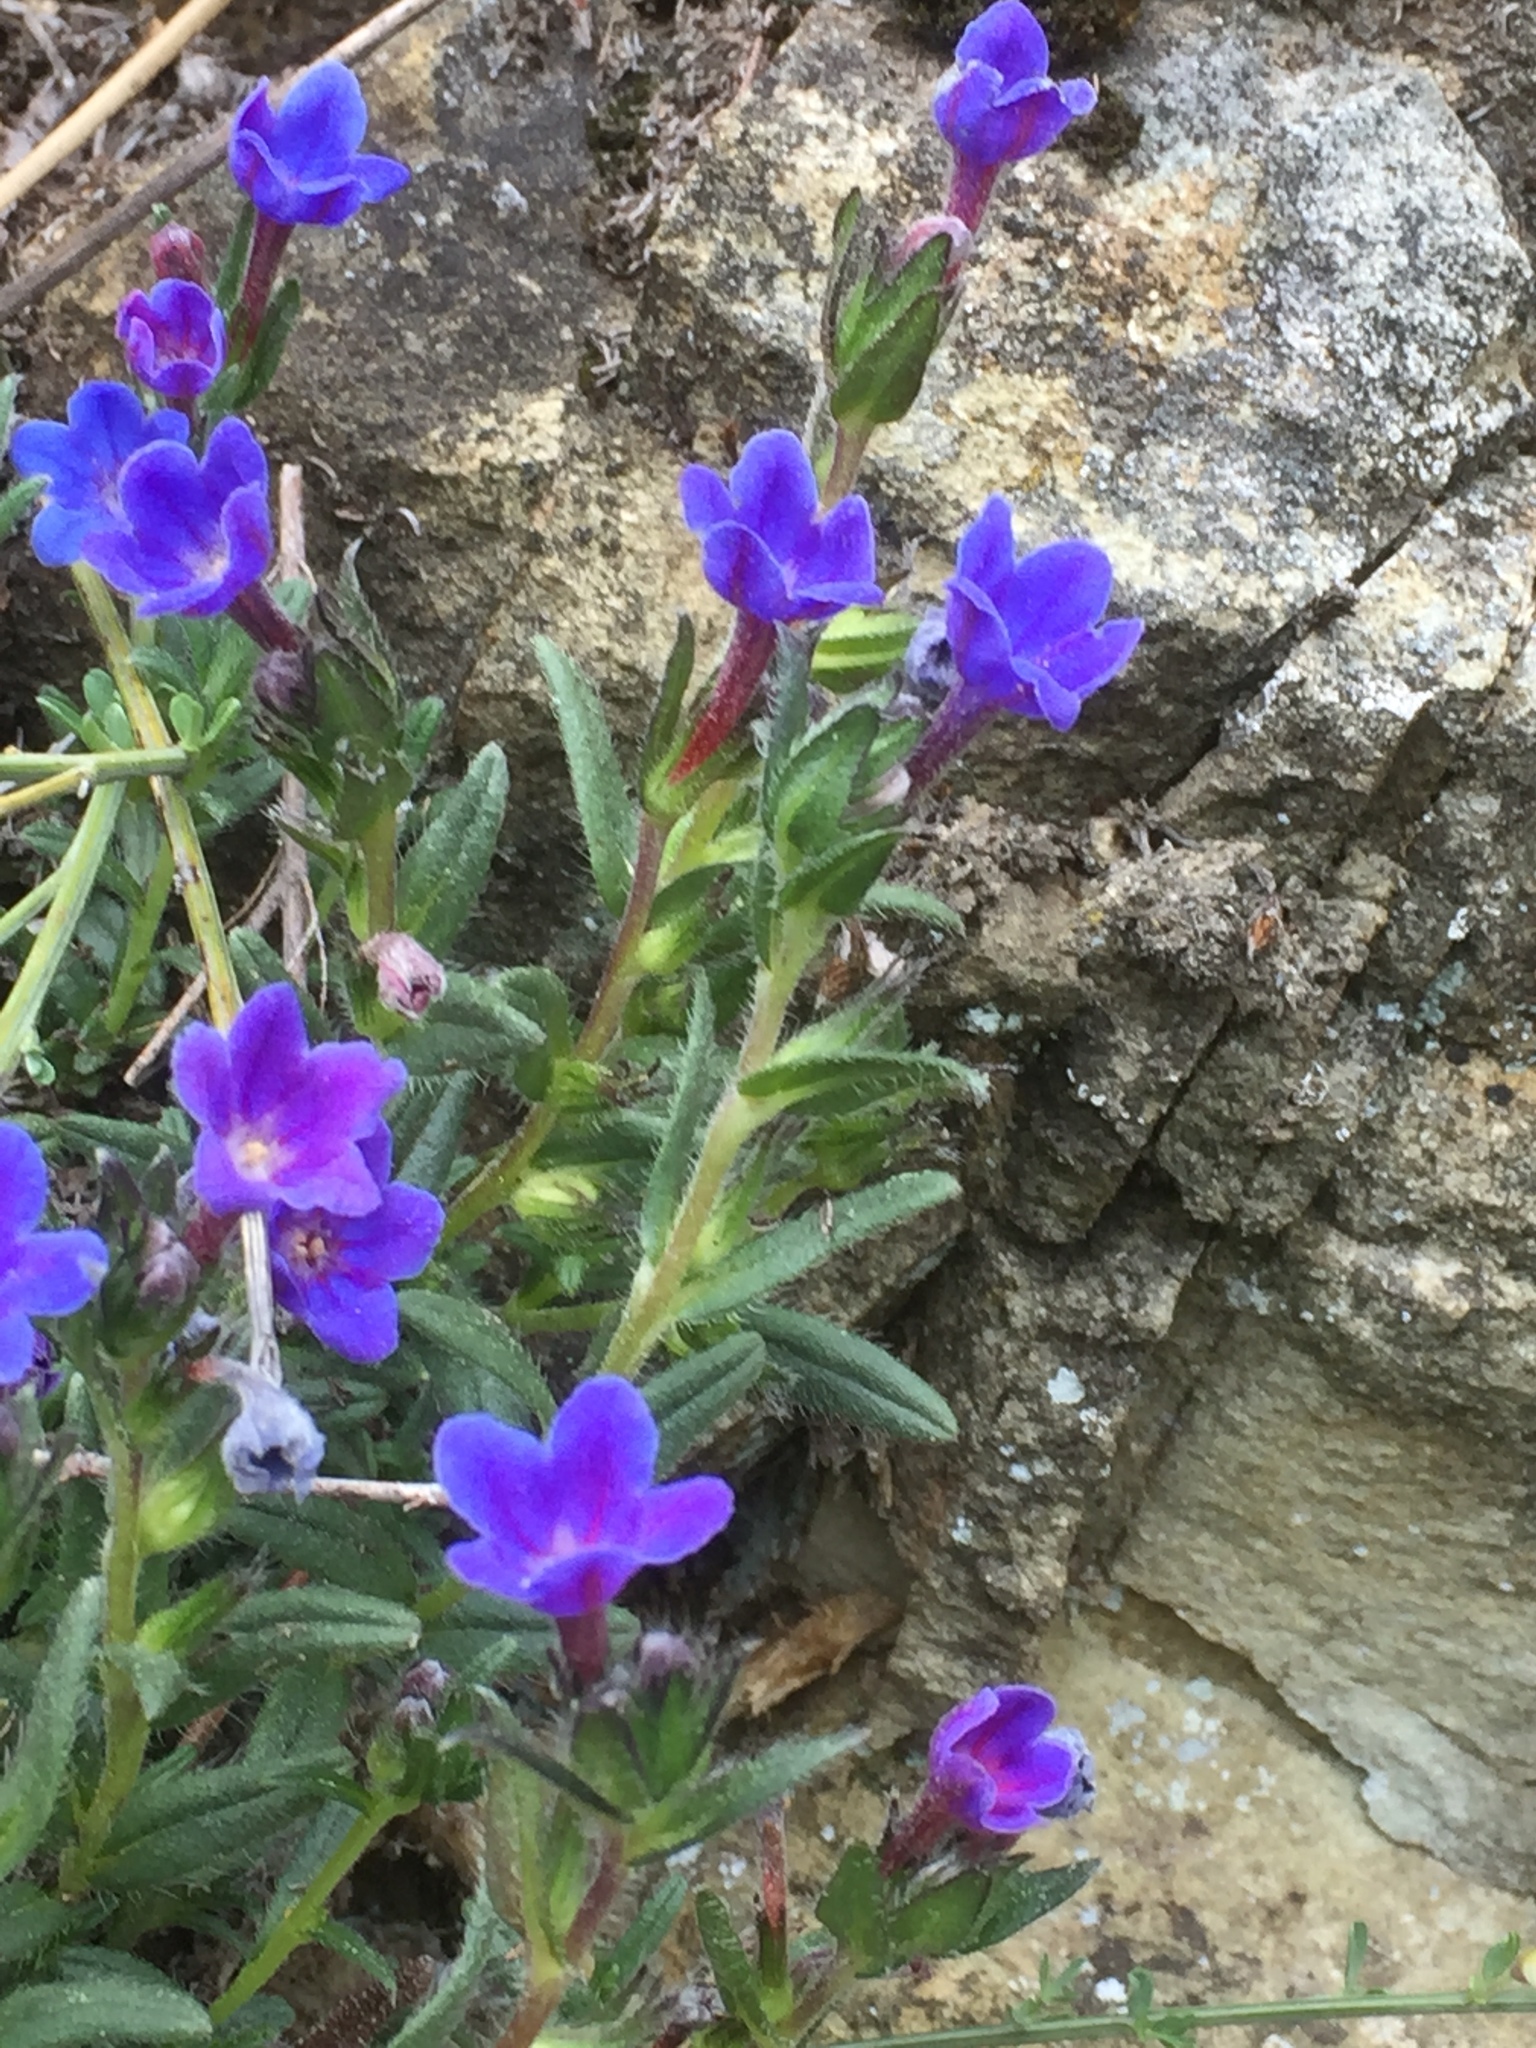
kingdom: Plantae
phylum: Tracheophyta
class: Magnoliopsida
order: Boraginales
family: Boraginaceae
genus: Glandora
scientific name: Glandora prostrata
